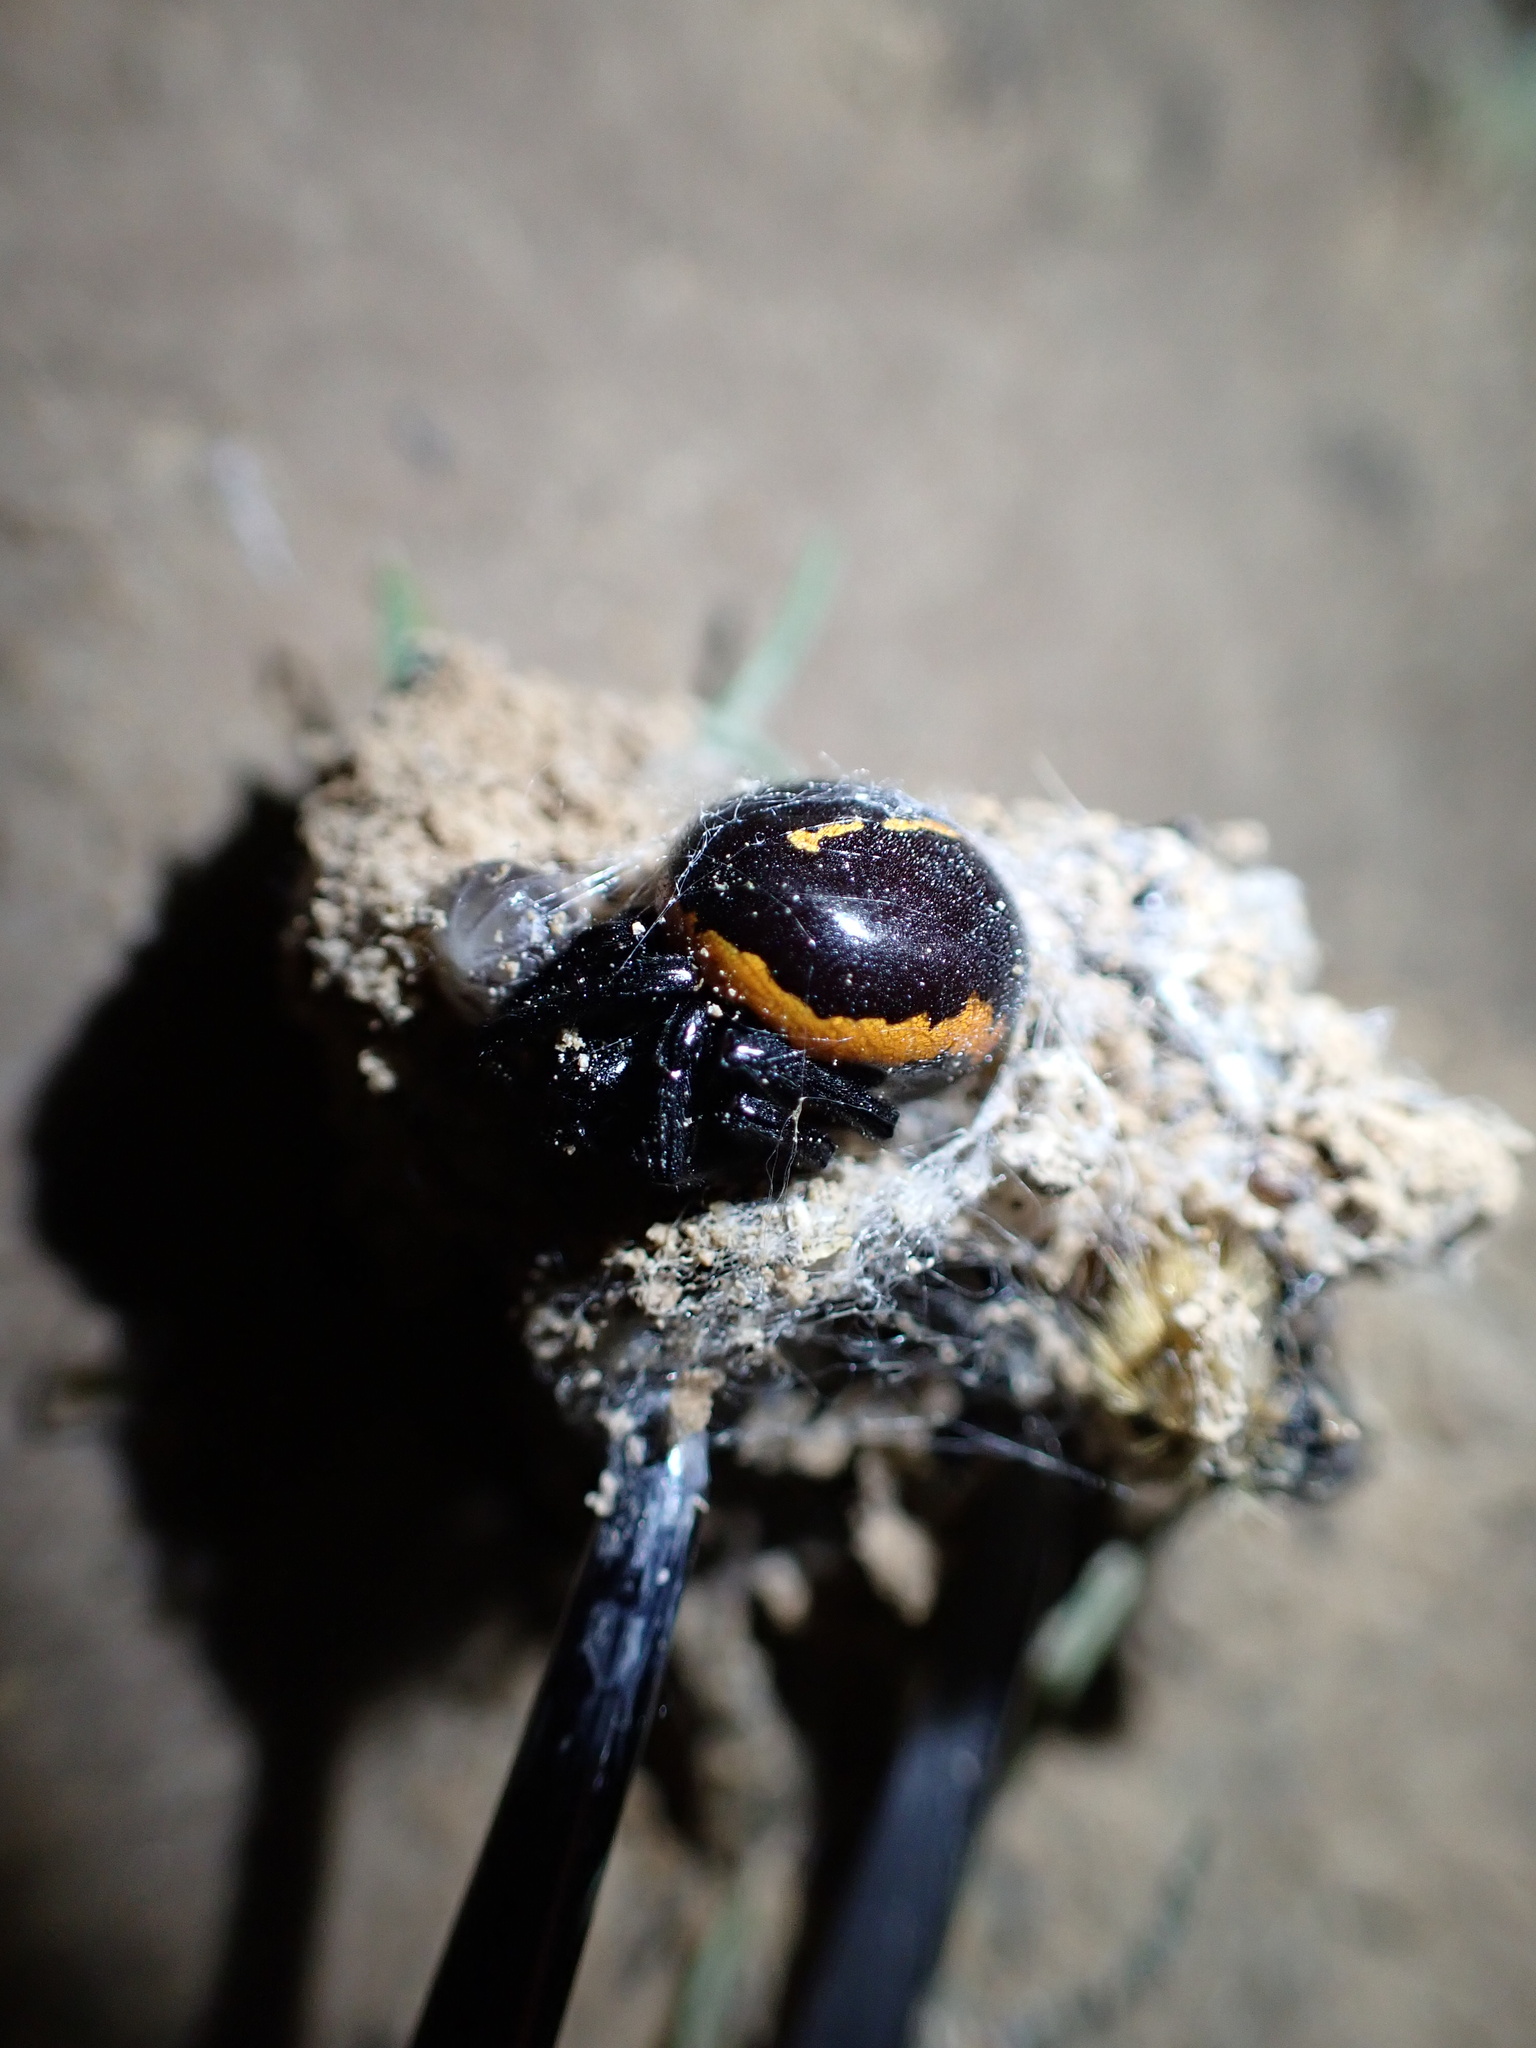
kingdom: Animalia
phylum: Arthropoda
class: Arachnida
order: Araneae
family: Theridiidae
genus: Steatoda
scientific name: Steatoda paykulliana
